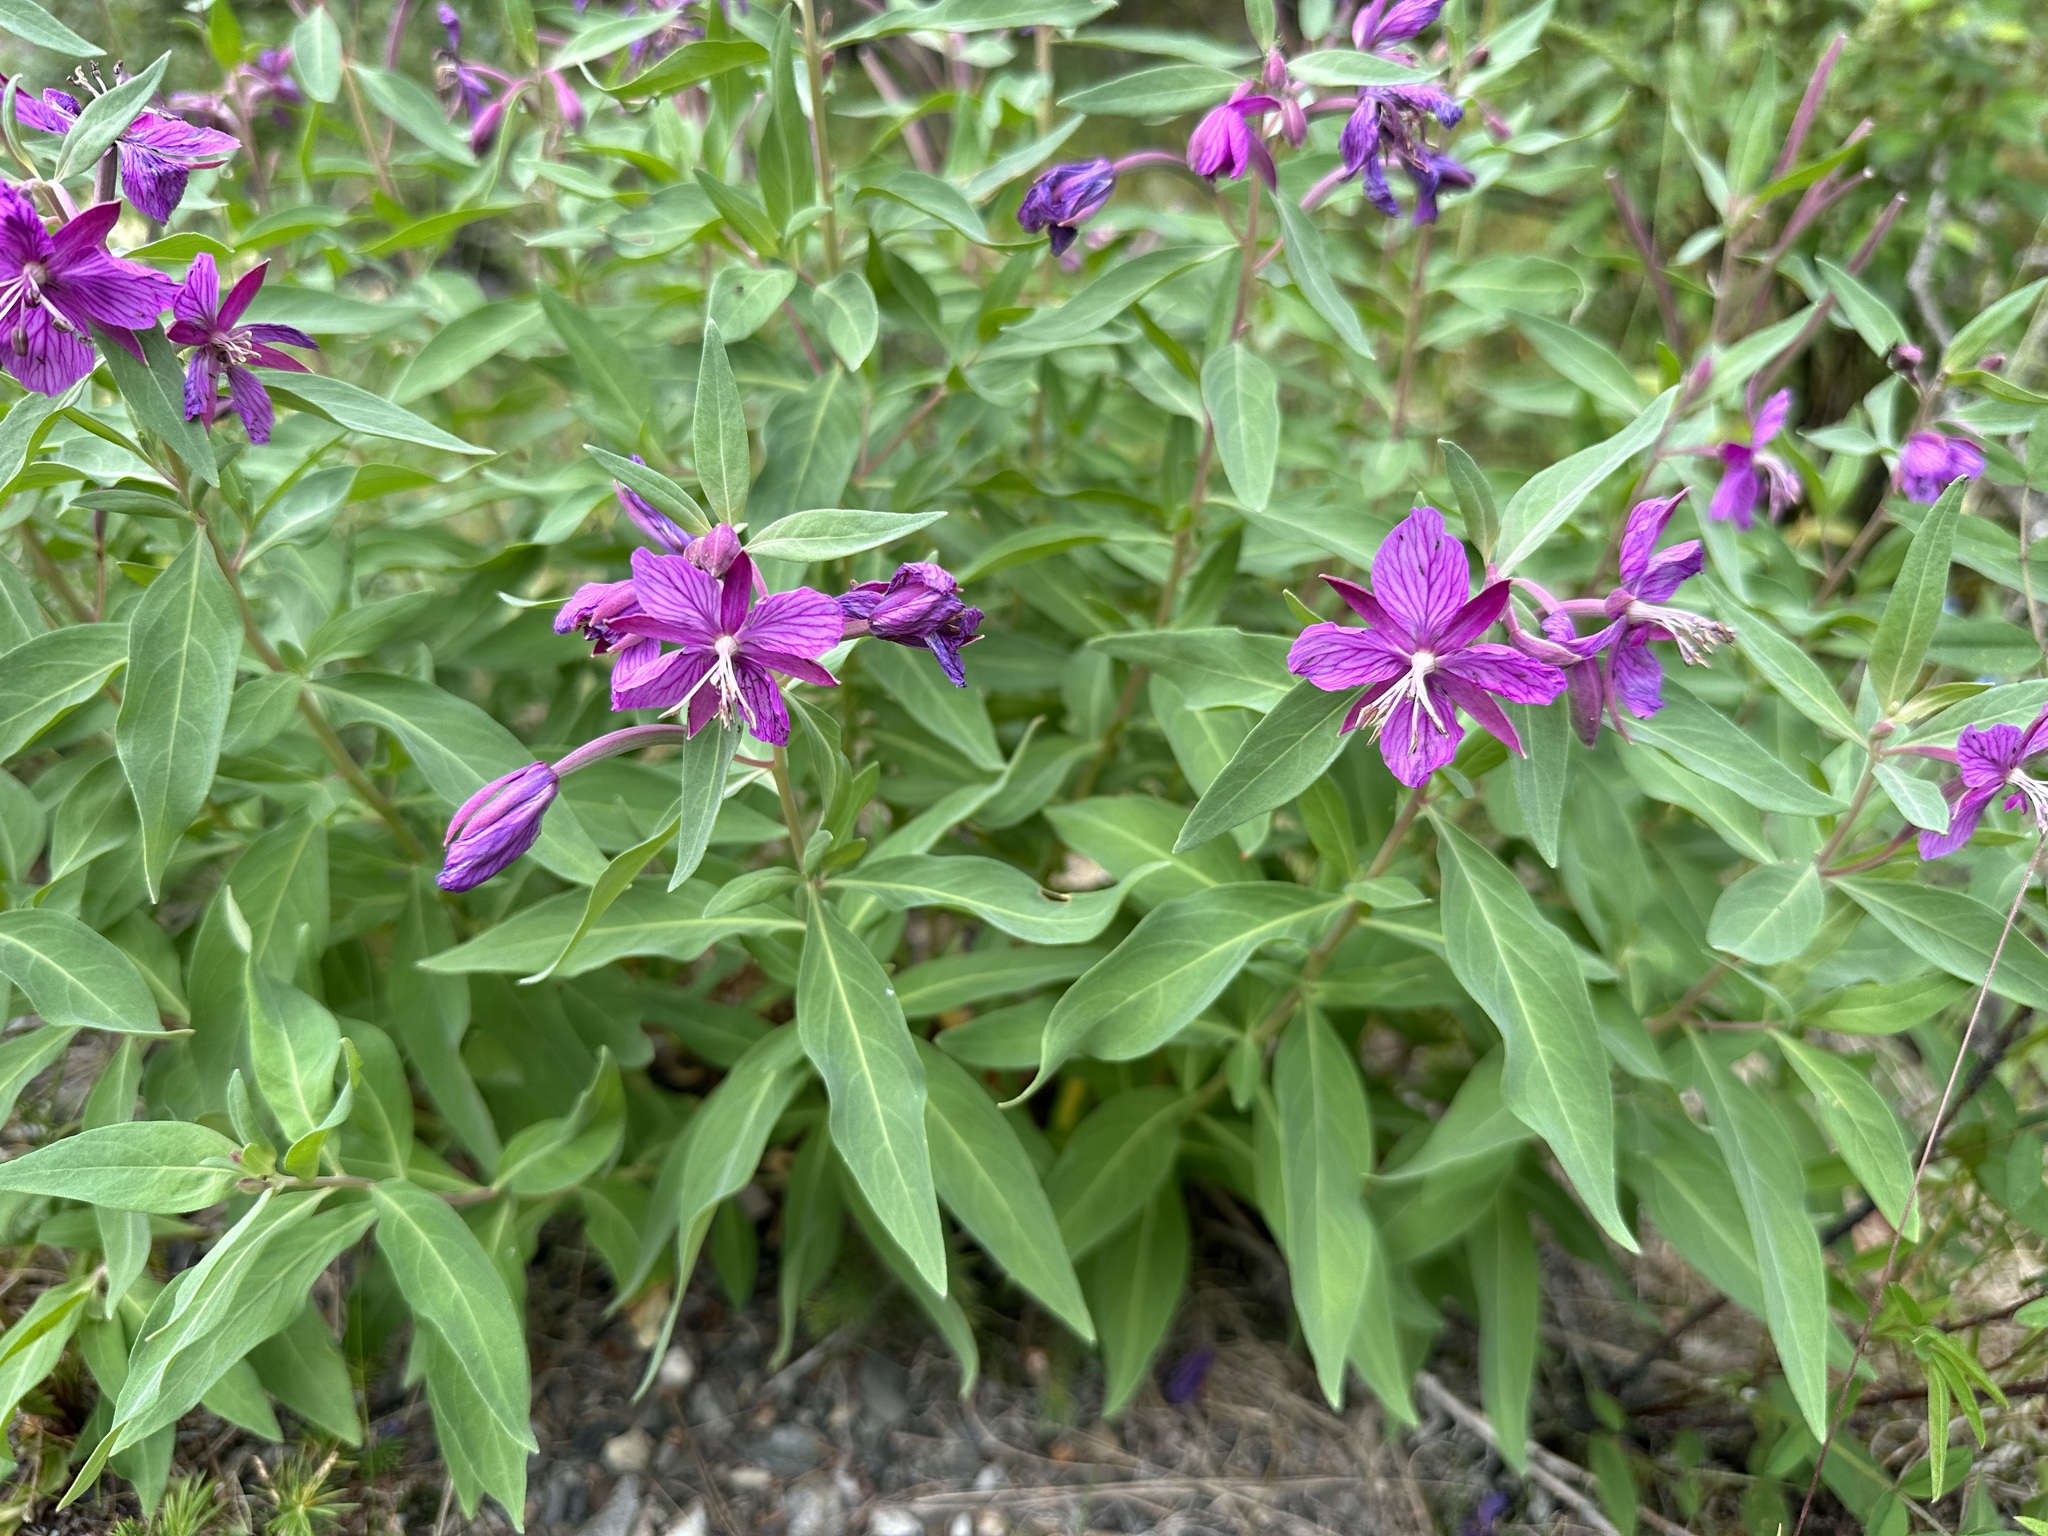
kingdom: Plantae
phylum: Tracheophyta
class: Magnoliopsida
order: Myrtales
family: Onagraceae
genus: Chamaenerion
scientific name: Chamaenerion latifolium
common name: Dwarf fireweed
